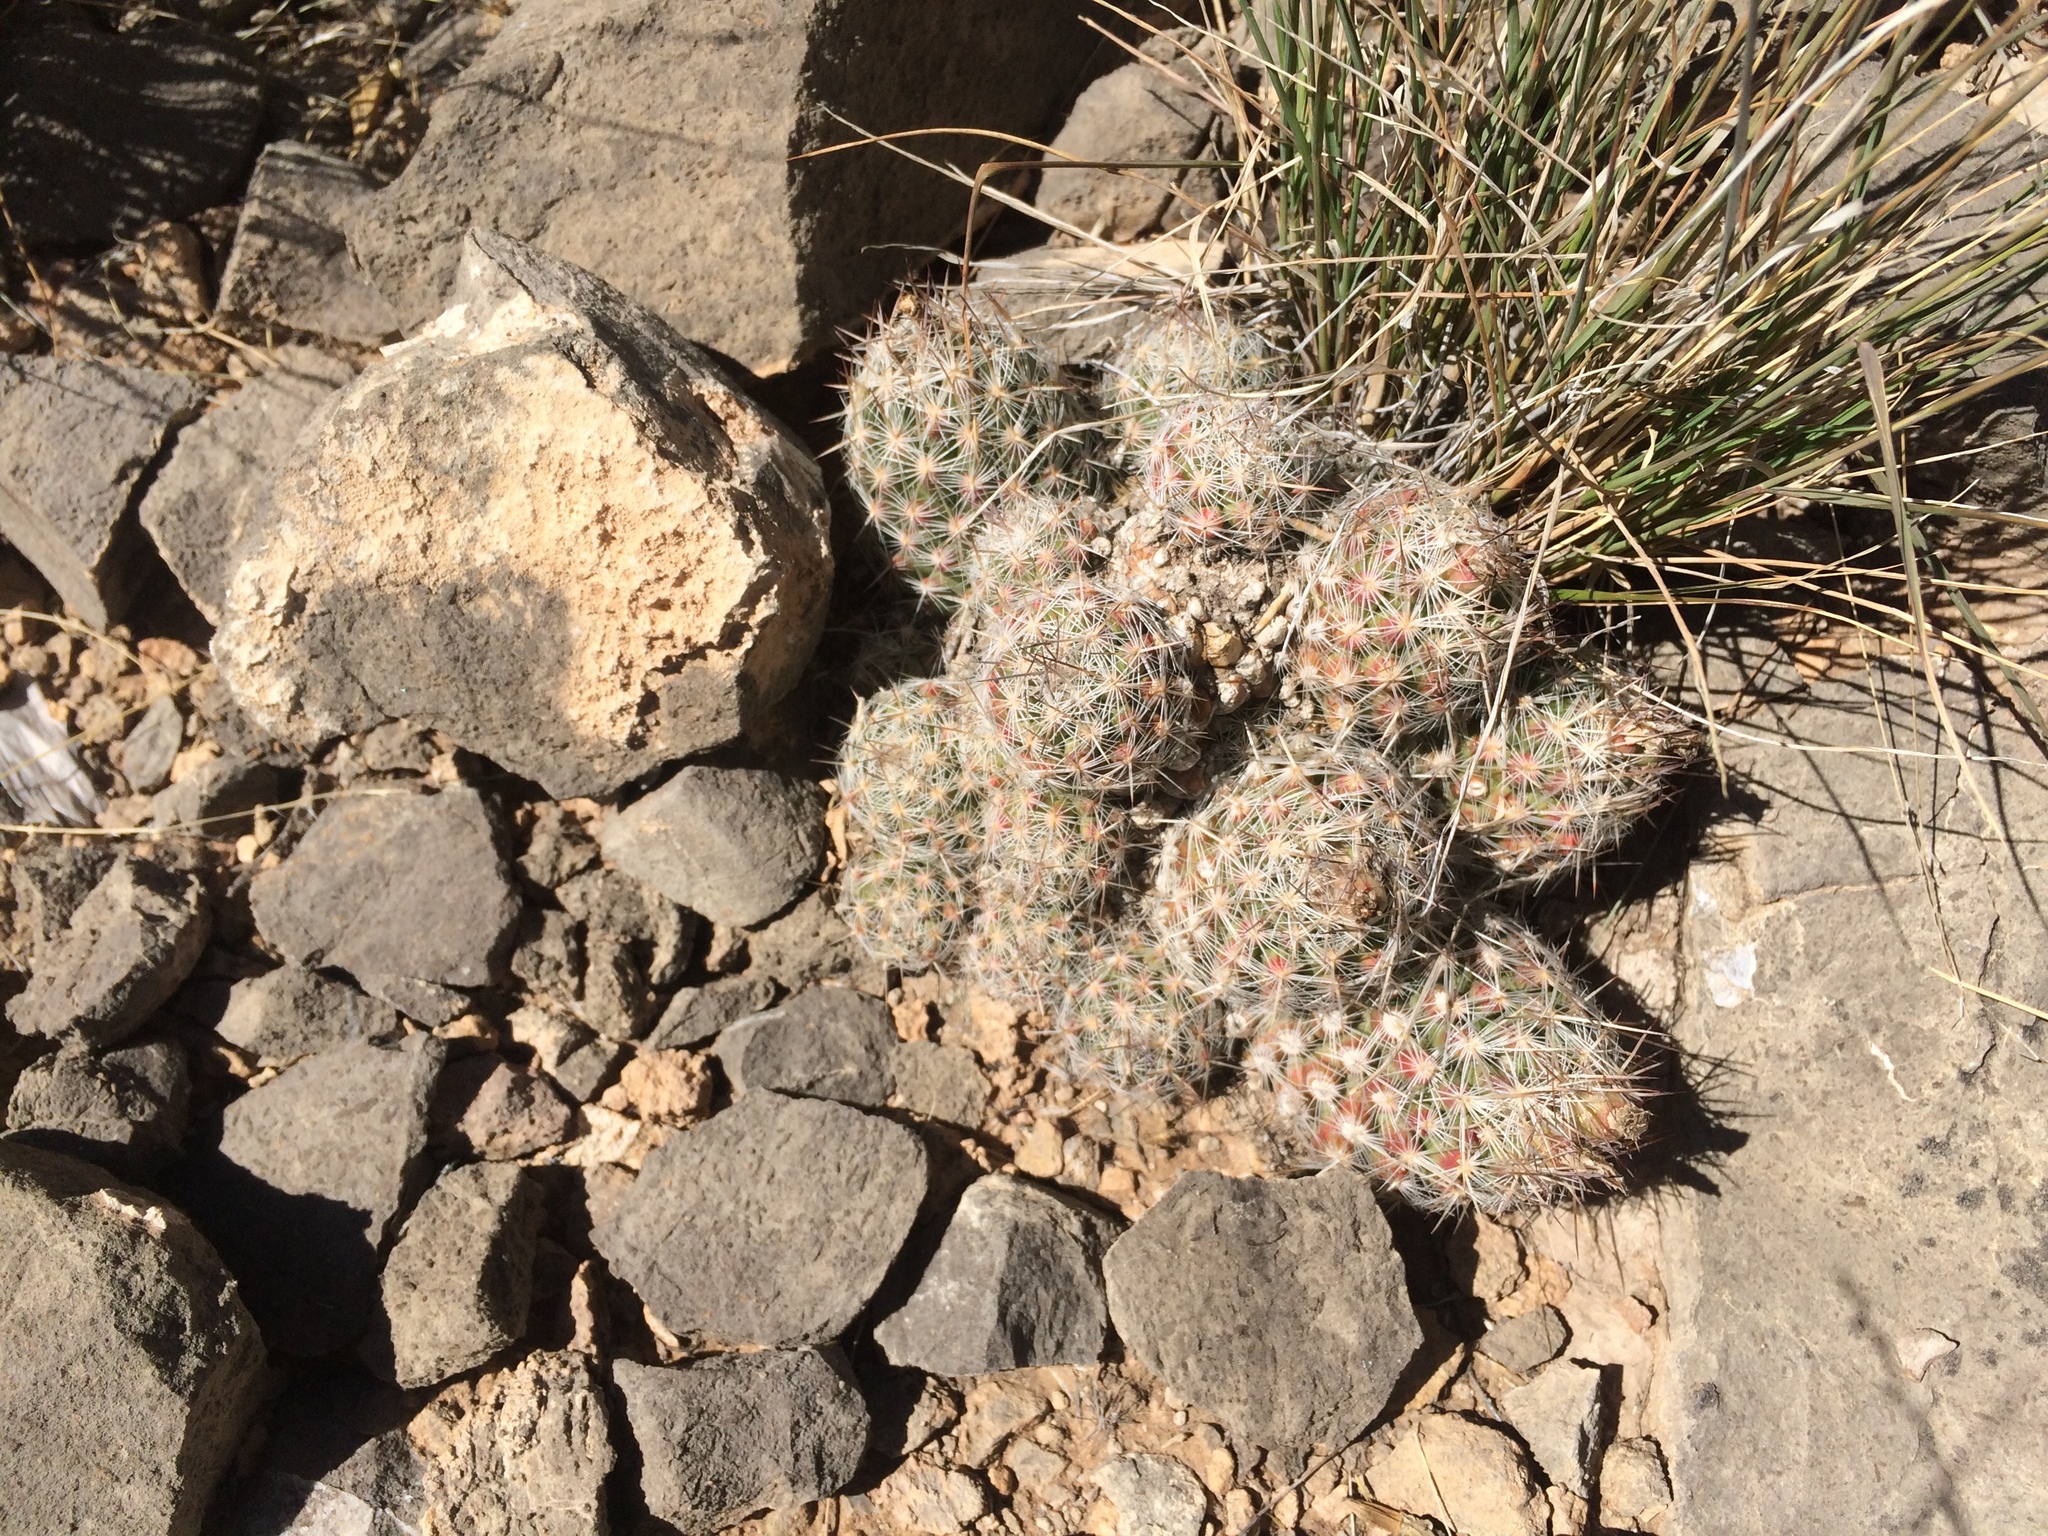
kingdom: Plantae
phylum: Tracheophyta
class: Magnoliopsida
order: Caryophyllales
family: Cactaceae
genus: Pelecyphora
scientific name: Pelecyphora tuberculosa
